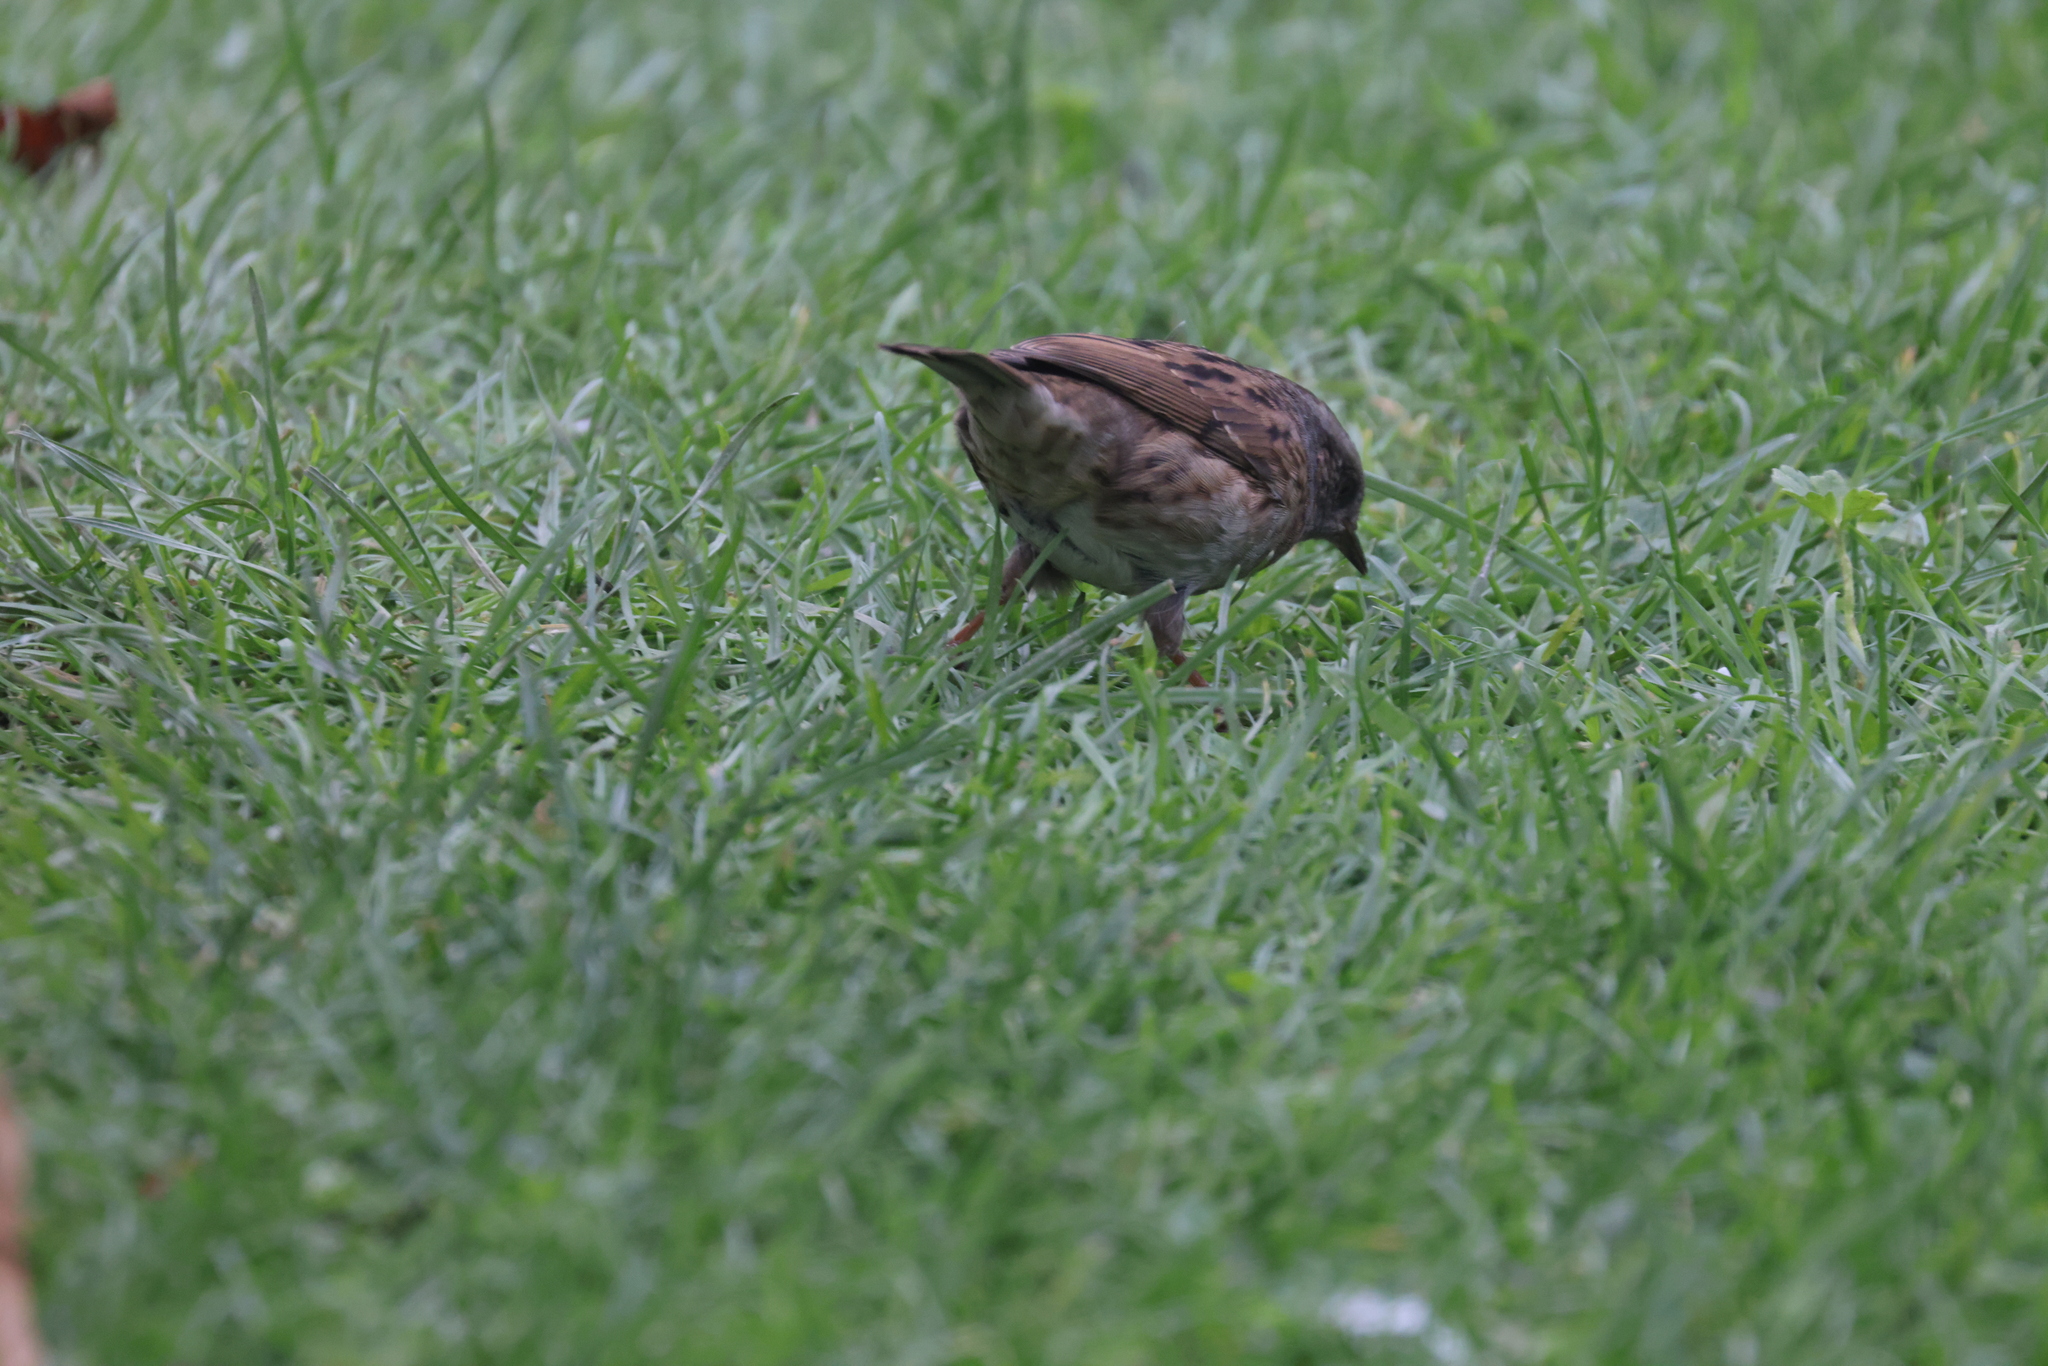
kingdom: Animalia
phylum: Chordata
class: Aves
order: Passeriformes
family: Prunellidae
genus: Prunella
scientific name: Prunella modularis
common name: Dunnock
